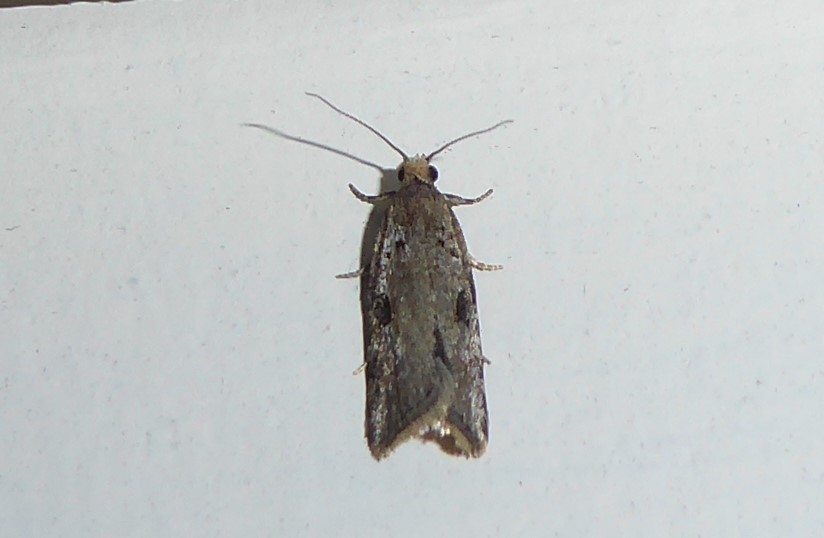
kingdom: Animalia
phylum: Arthropoda
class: Insecta
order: Lepidoptera
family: Tortricidae
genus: Capua
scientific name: Capua semiferana
